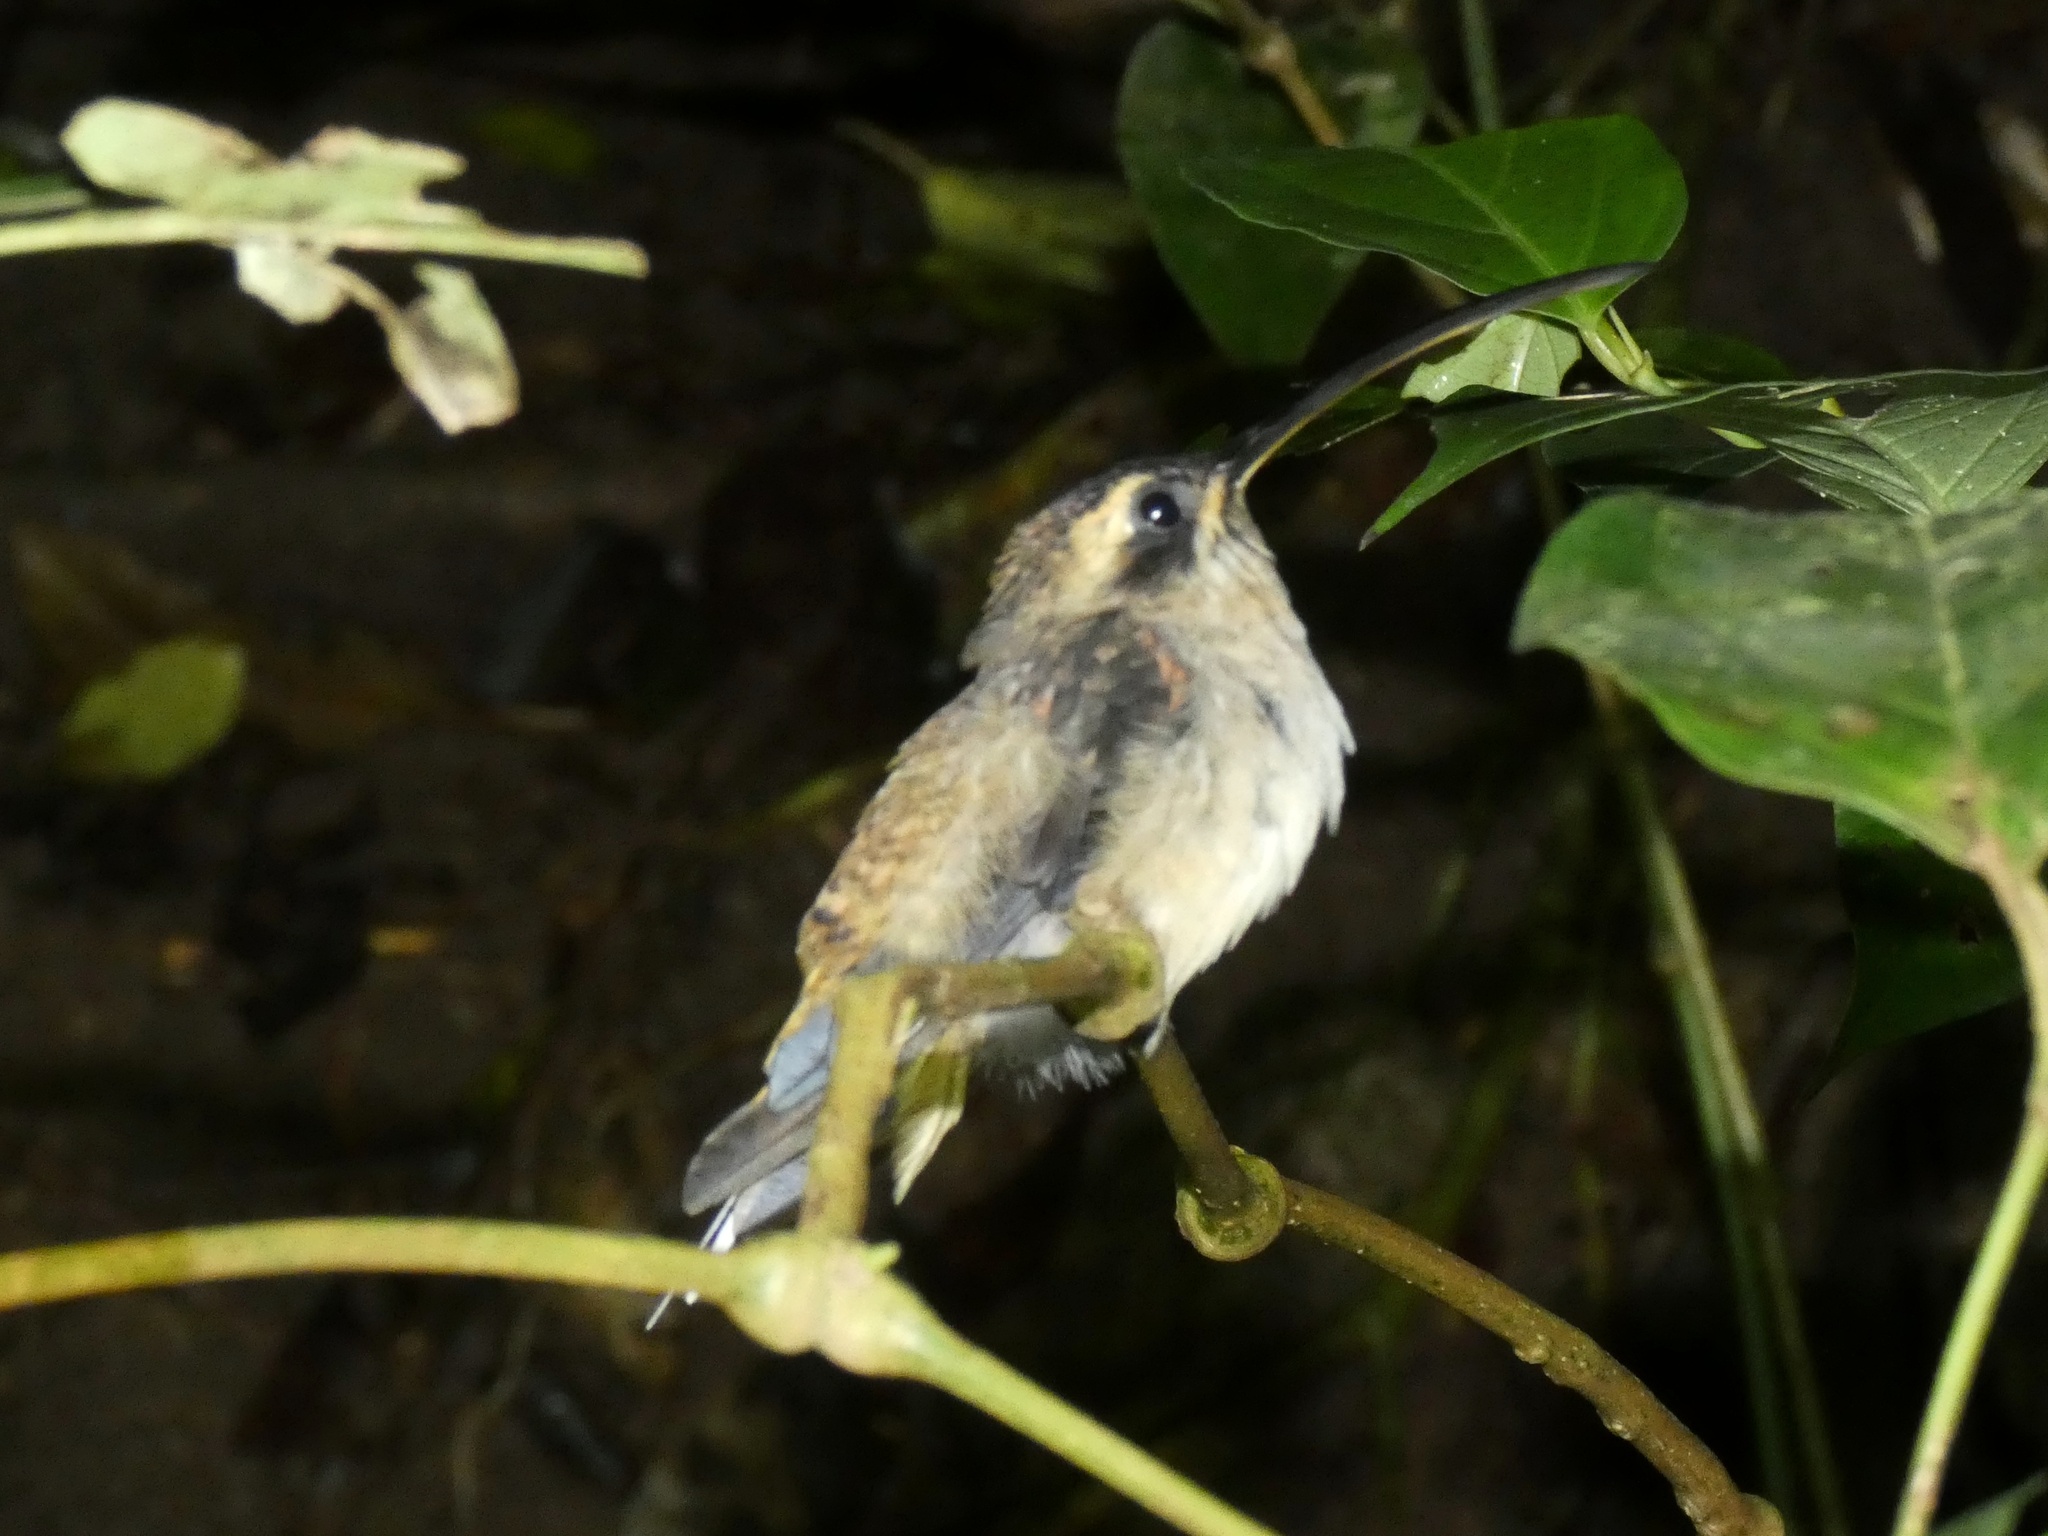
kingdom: Animalia
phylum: Chordata
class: Aves
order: Apodiformes
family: Trochilidae
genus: Phaethornis
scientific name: Phaethornis longirostris
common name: Long-billed hermit
